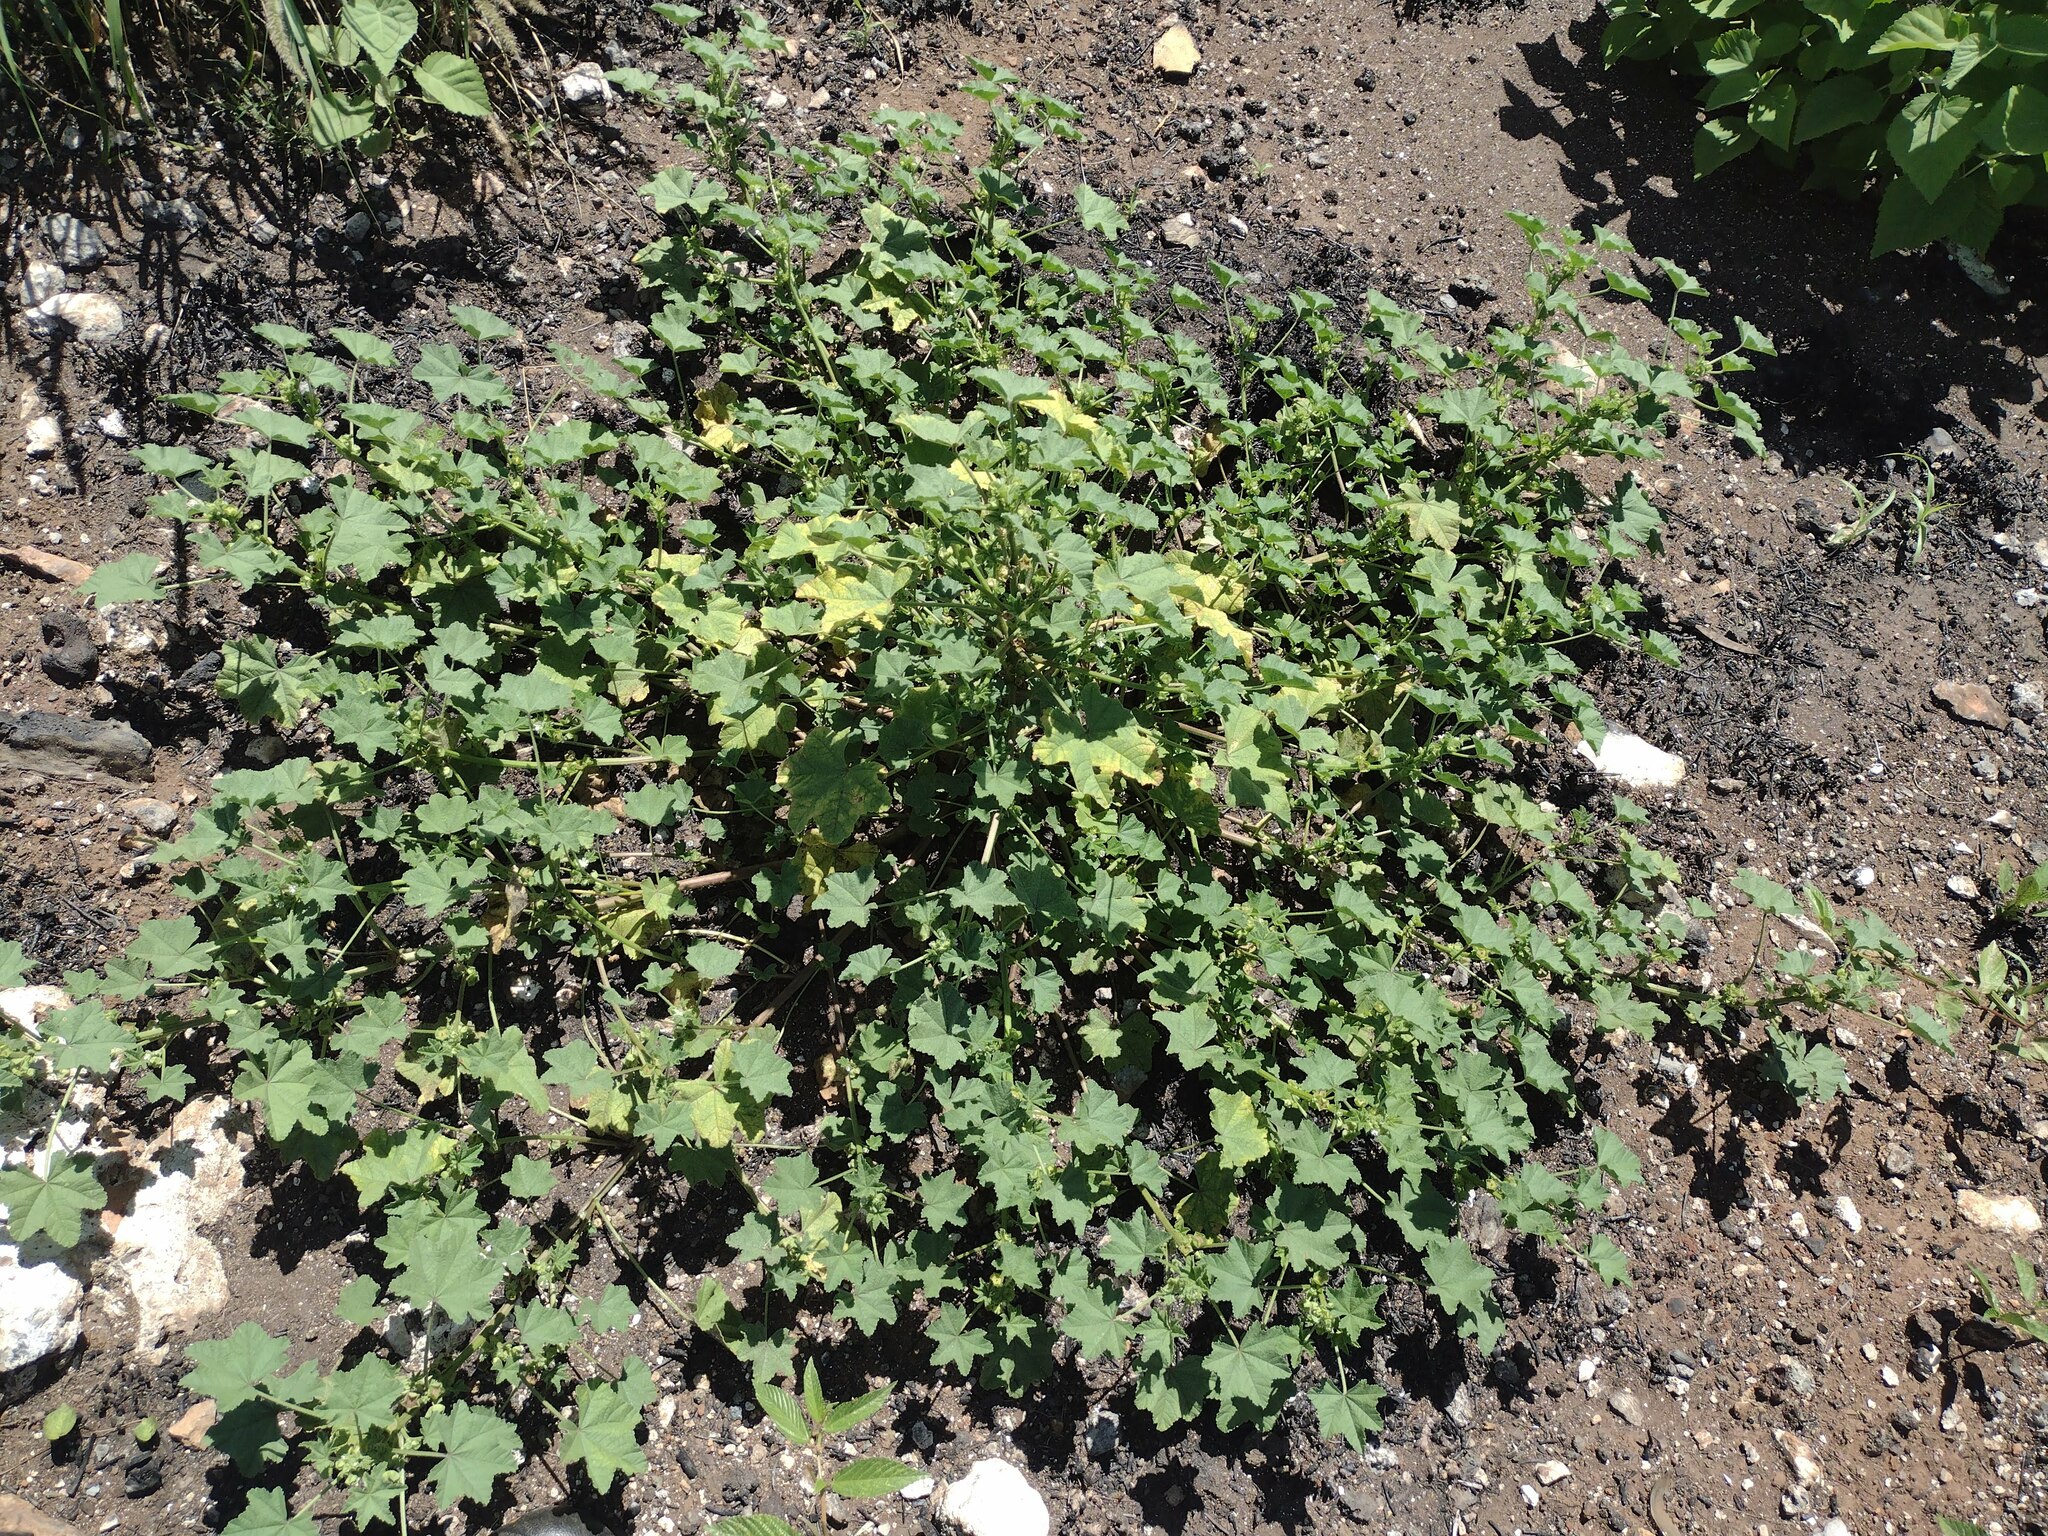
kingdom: Plantae
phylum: Tracheophyta
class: Magnoliopsida
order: Malvales
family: Malvaceae
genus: Malva
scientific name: Malva parviflora
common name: Least mallow
